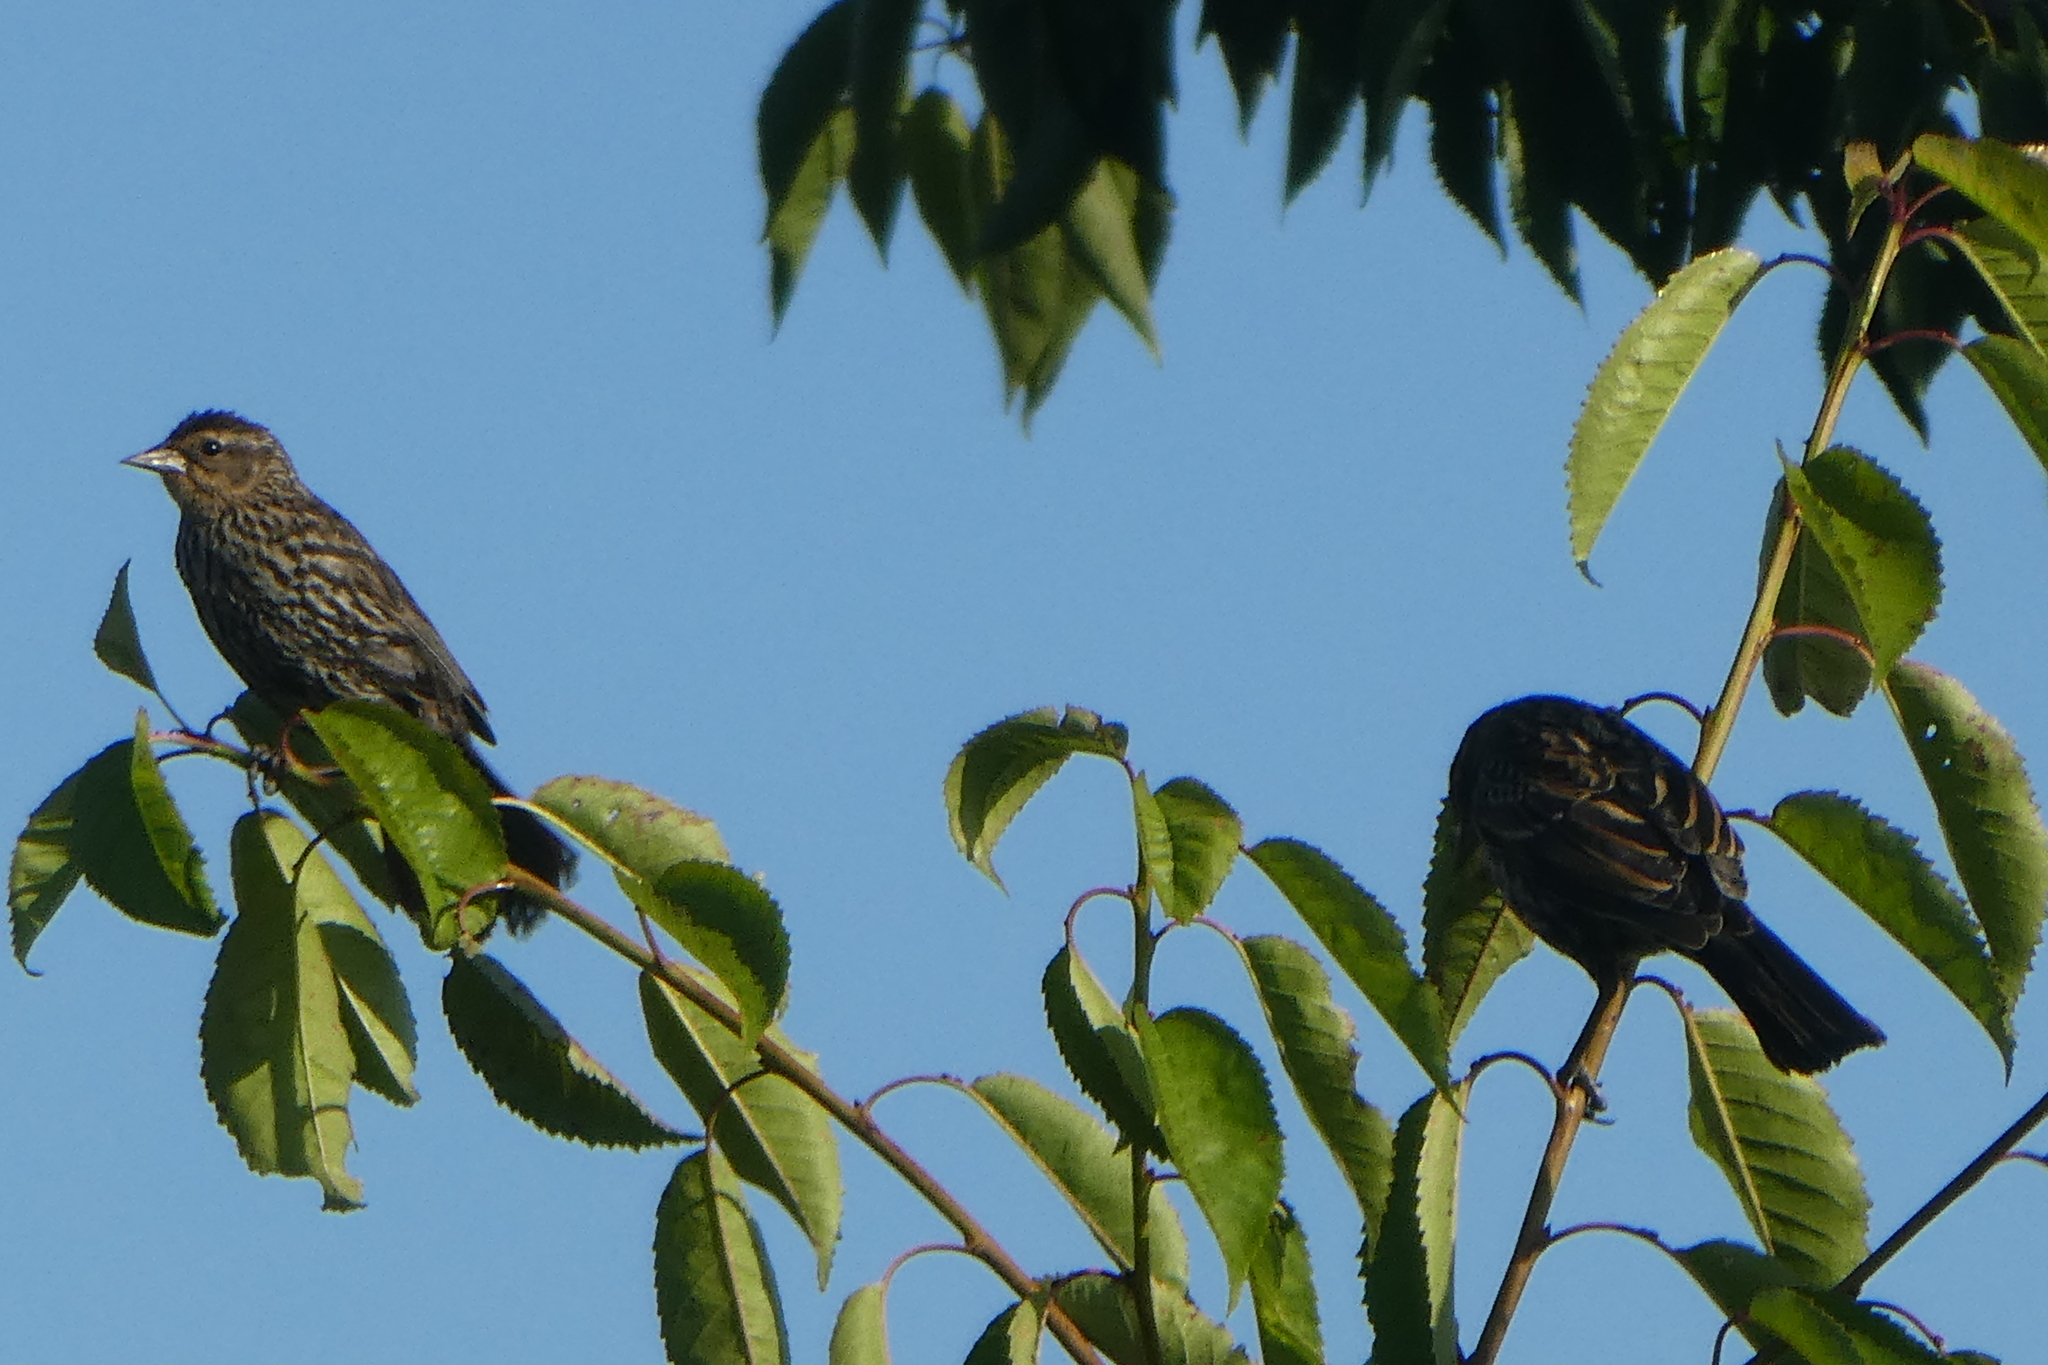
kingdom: Animalia
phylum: Chordata
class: Aves
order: Passeriformes
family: Icteridae
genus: Agelaius
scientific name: Agelaius phoeniceus
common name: Red-winged blackbird
